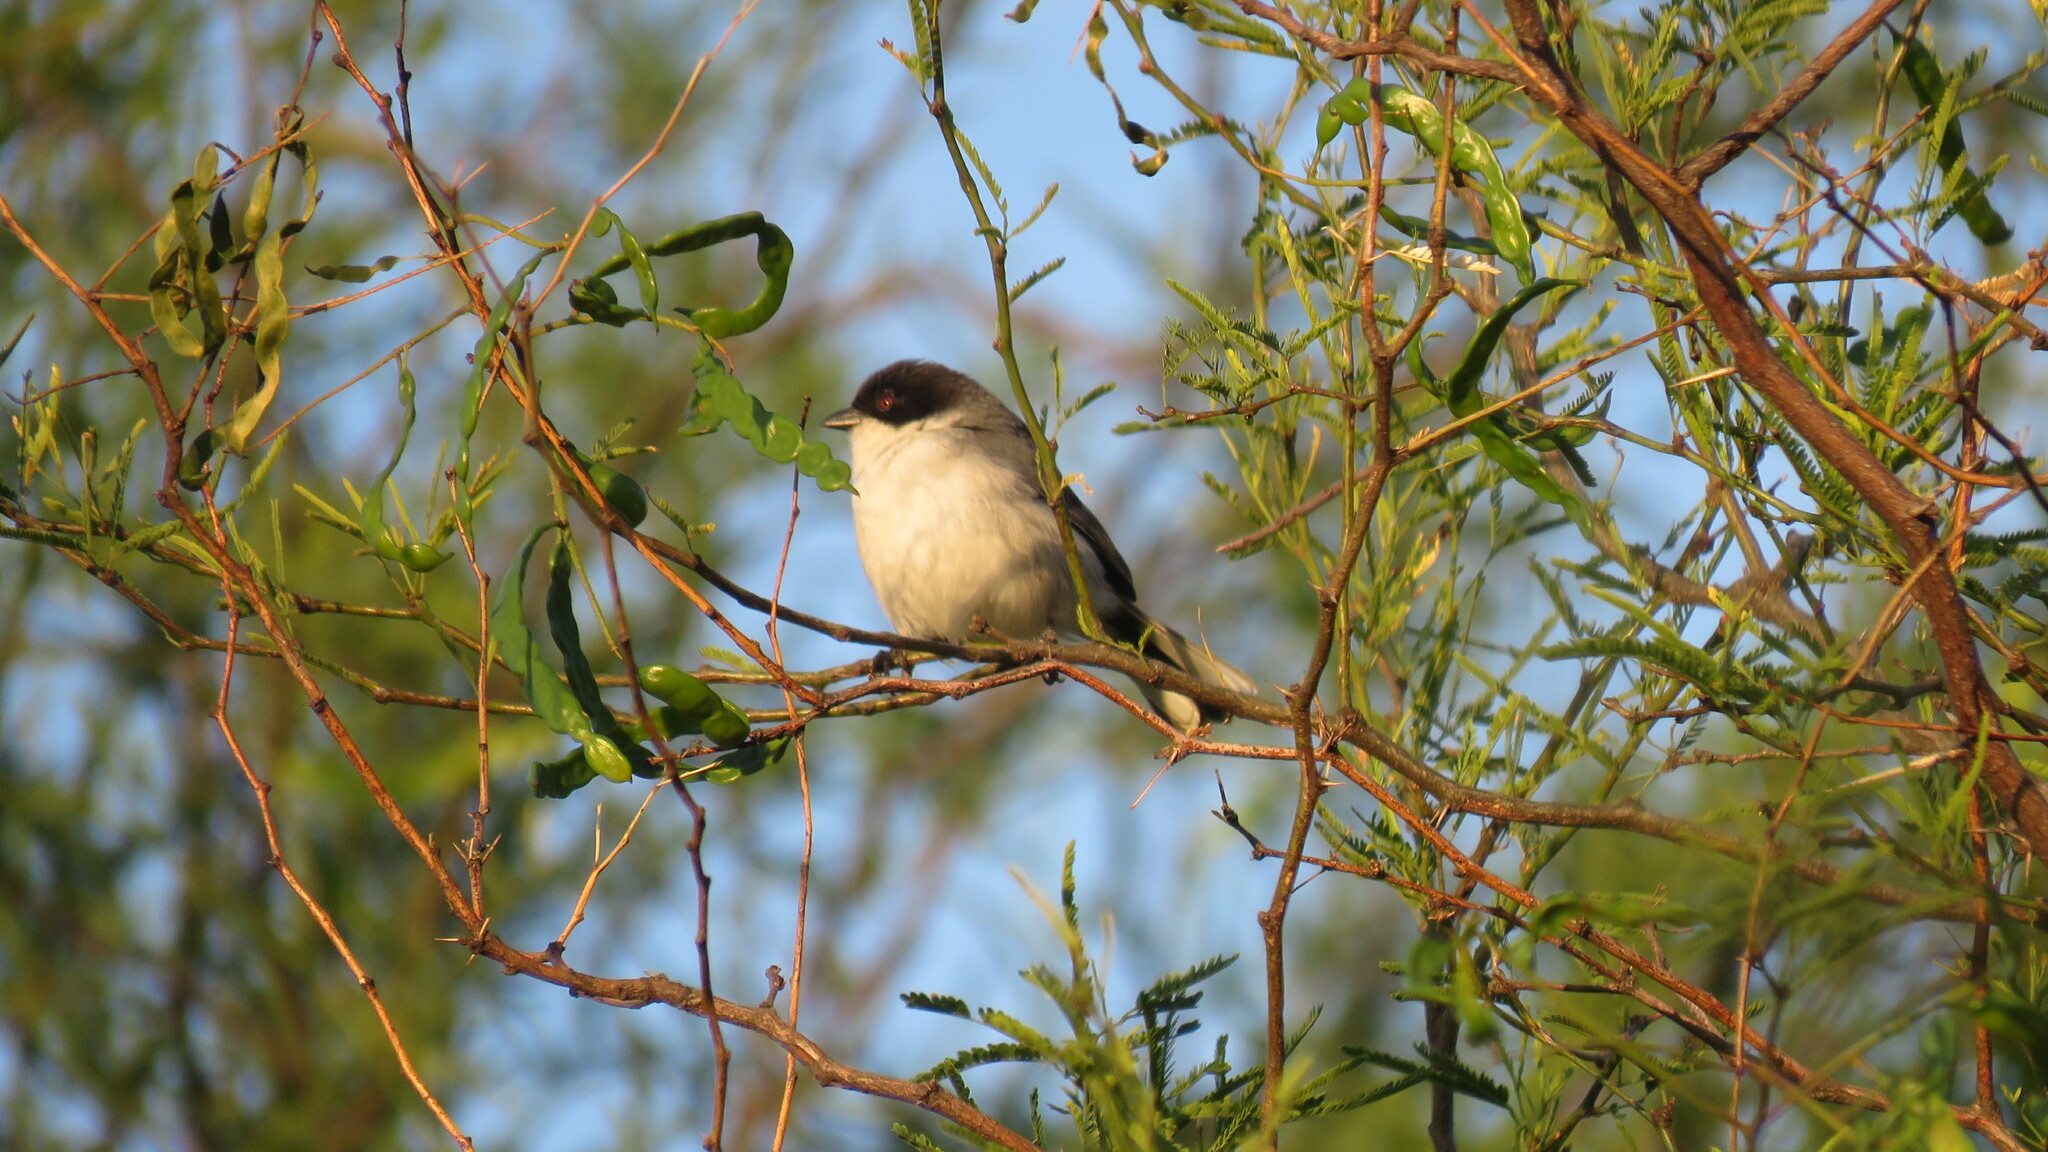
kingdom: Animalia
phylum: Chordata
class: Aves
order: Passeriformes
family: Thraupidae
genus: Microspingus
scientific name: Microspingus melanoleucus
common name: Black-capped warbling-finch
